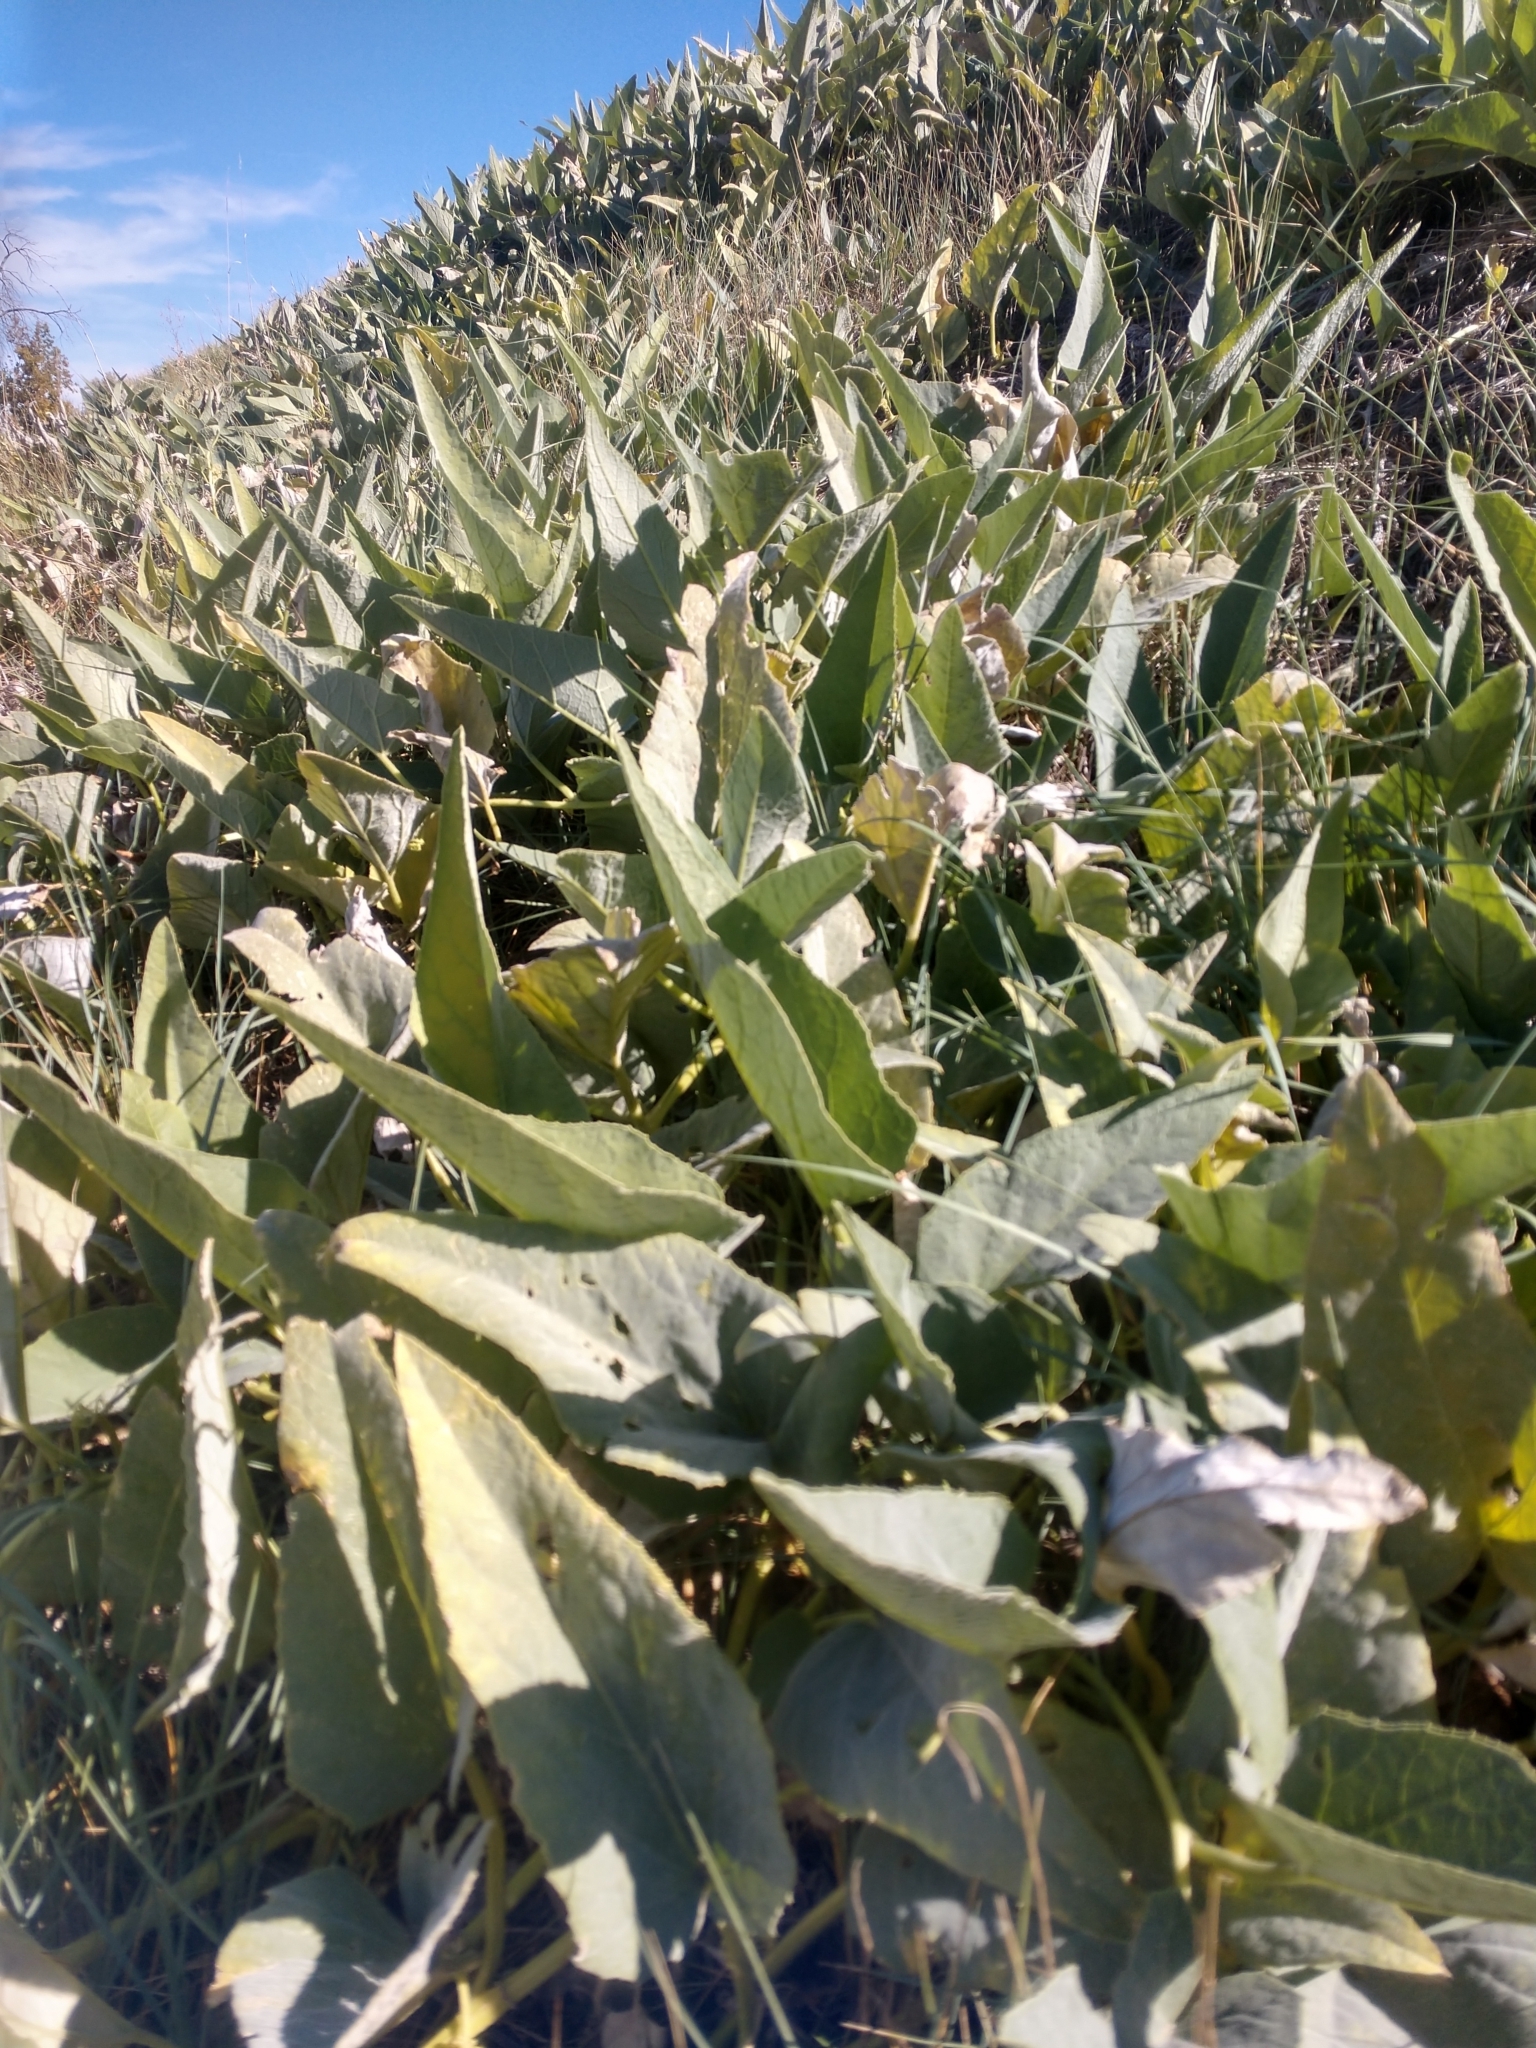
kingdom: Plantae
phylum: Tracheophyta
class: Magnoliopsida
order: Cucurbitales
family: Cucurbitaceae
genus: Cucurbita
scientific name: Cucurbita foetidissima
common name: Buffalo gourd
